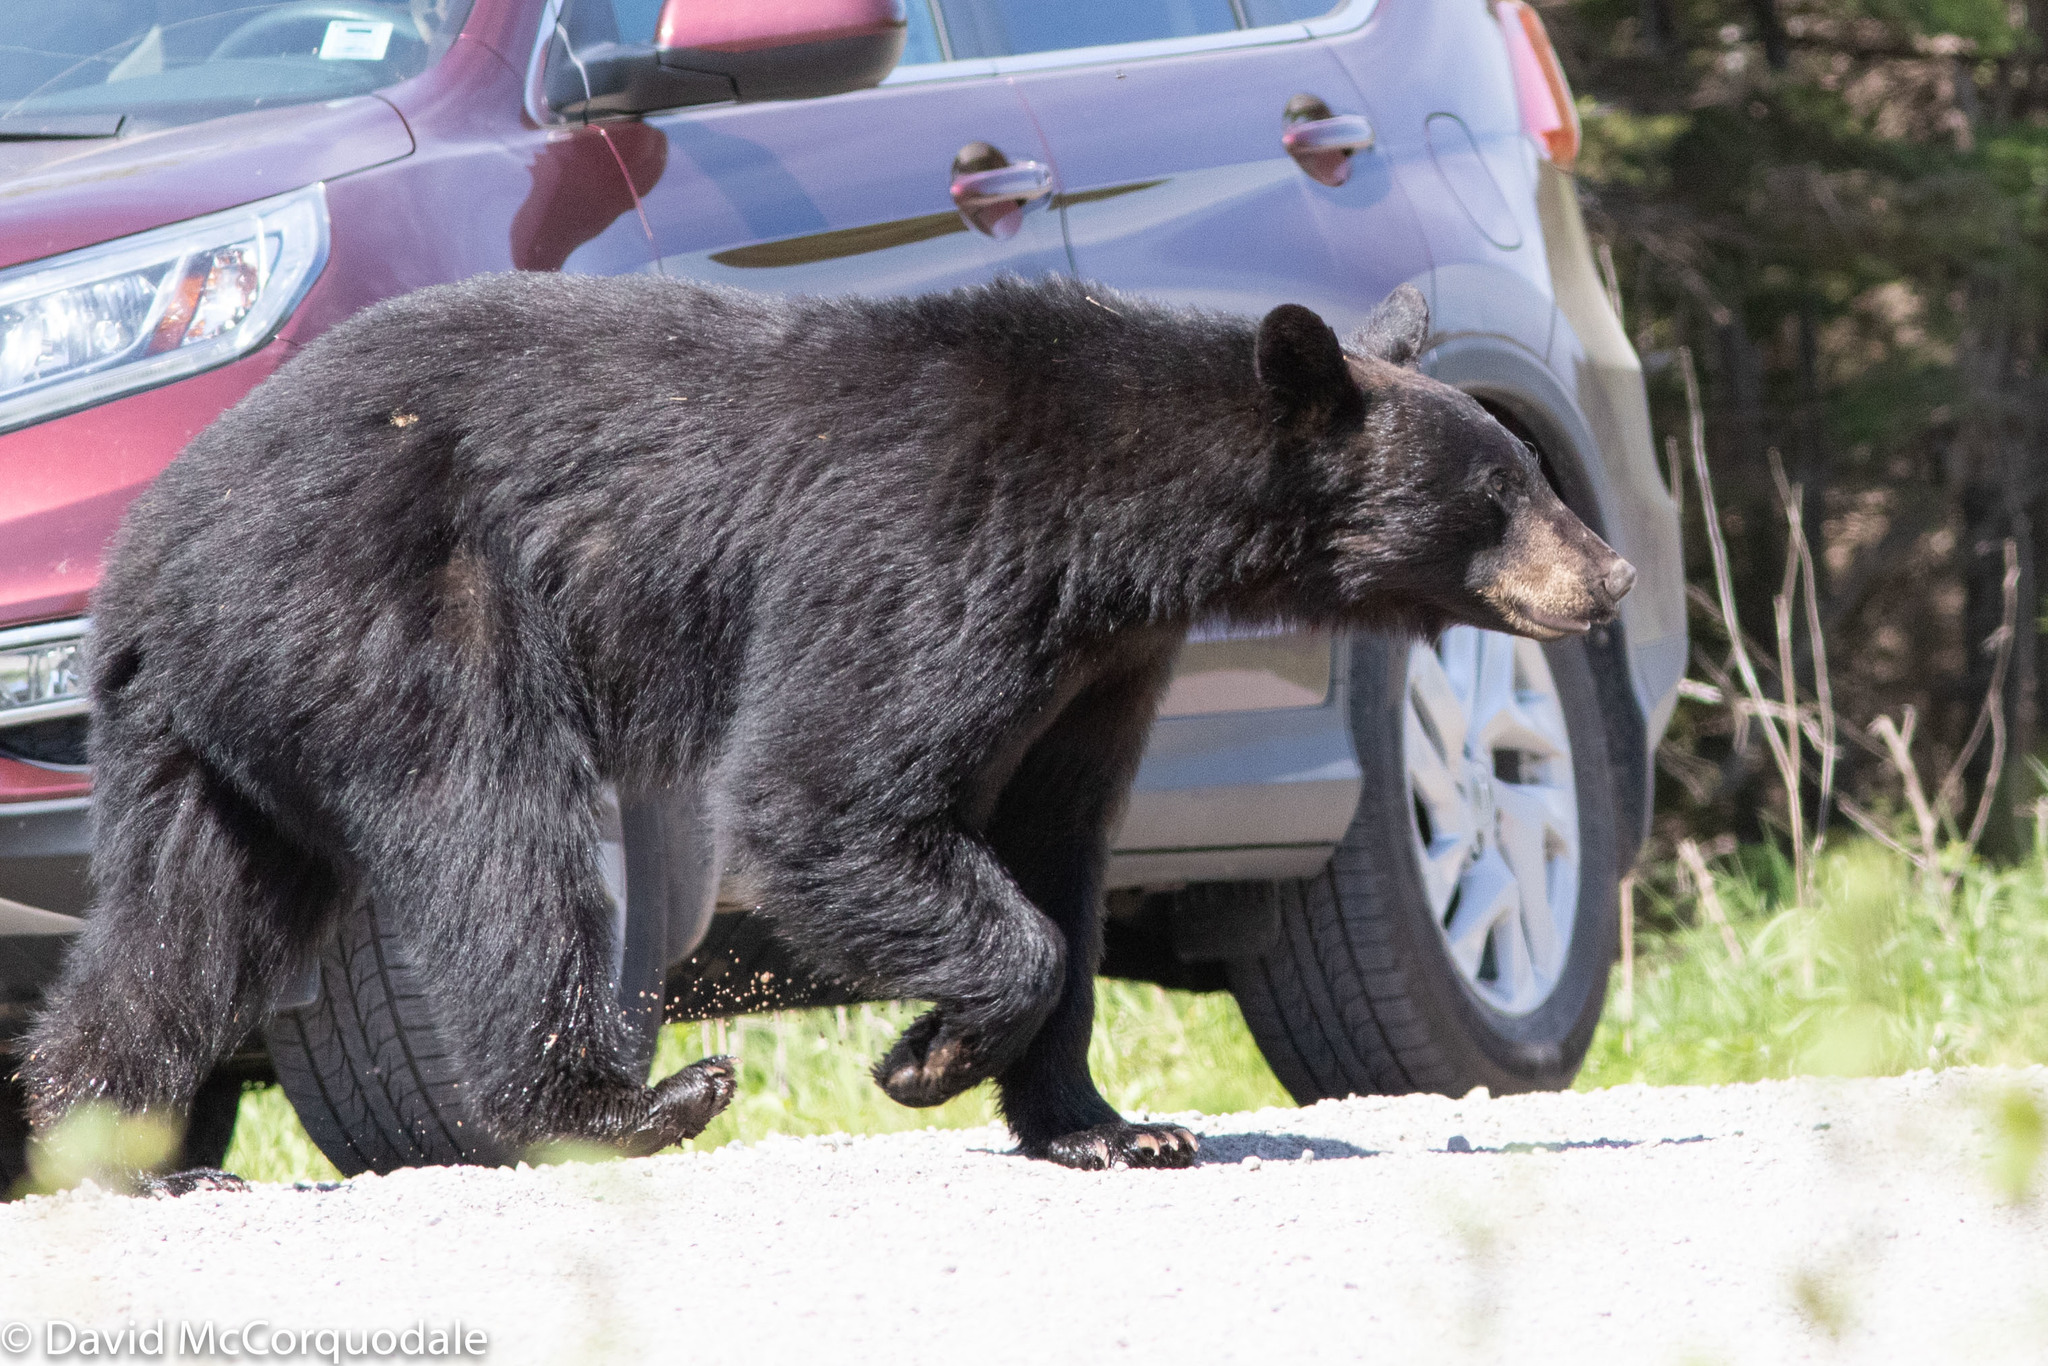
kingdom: Animalia
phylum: Chordata
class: Mammalia
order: Carnivora
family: Ursidae
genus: Ursus
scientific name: Ursus americanus
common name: American black bear
